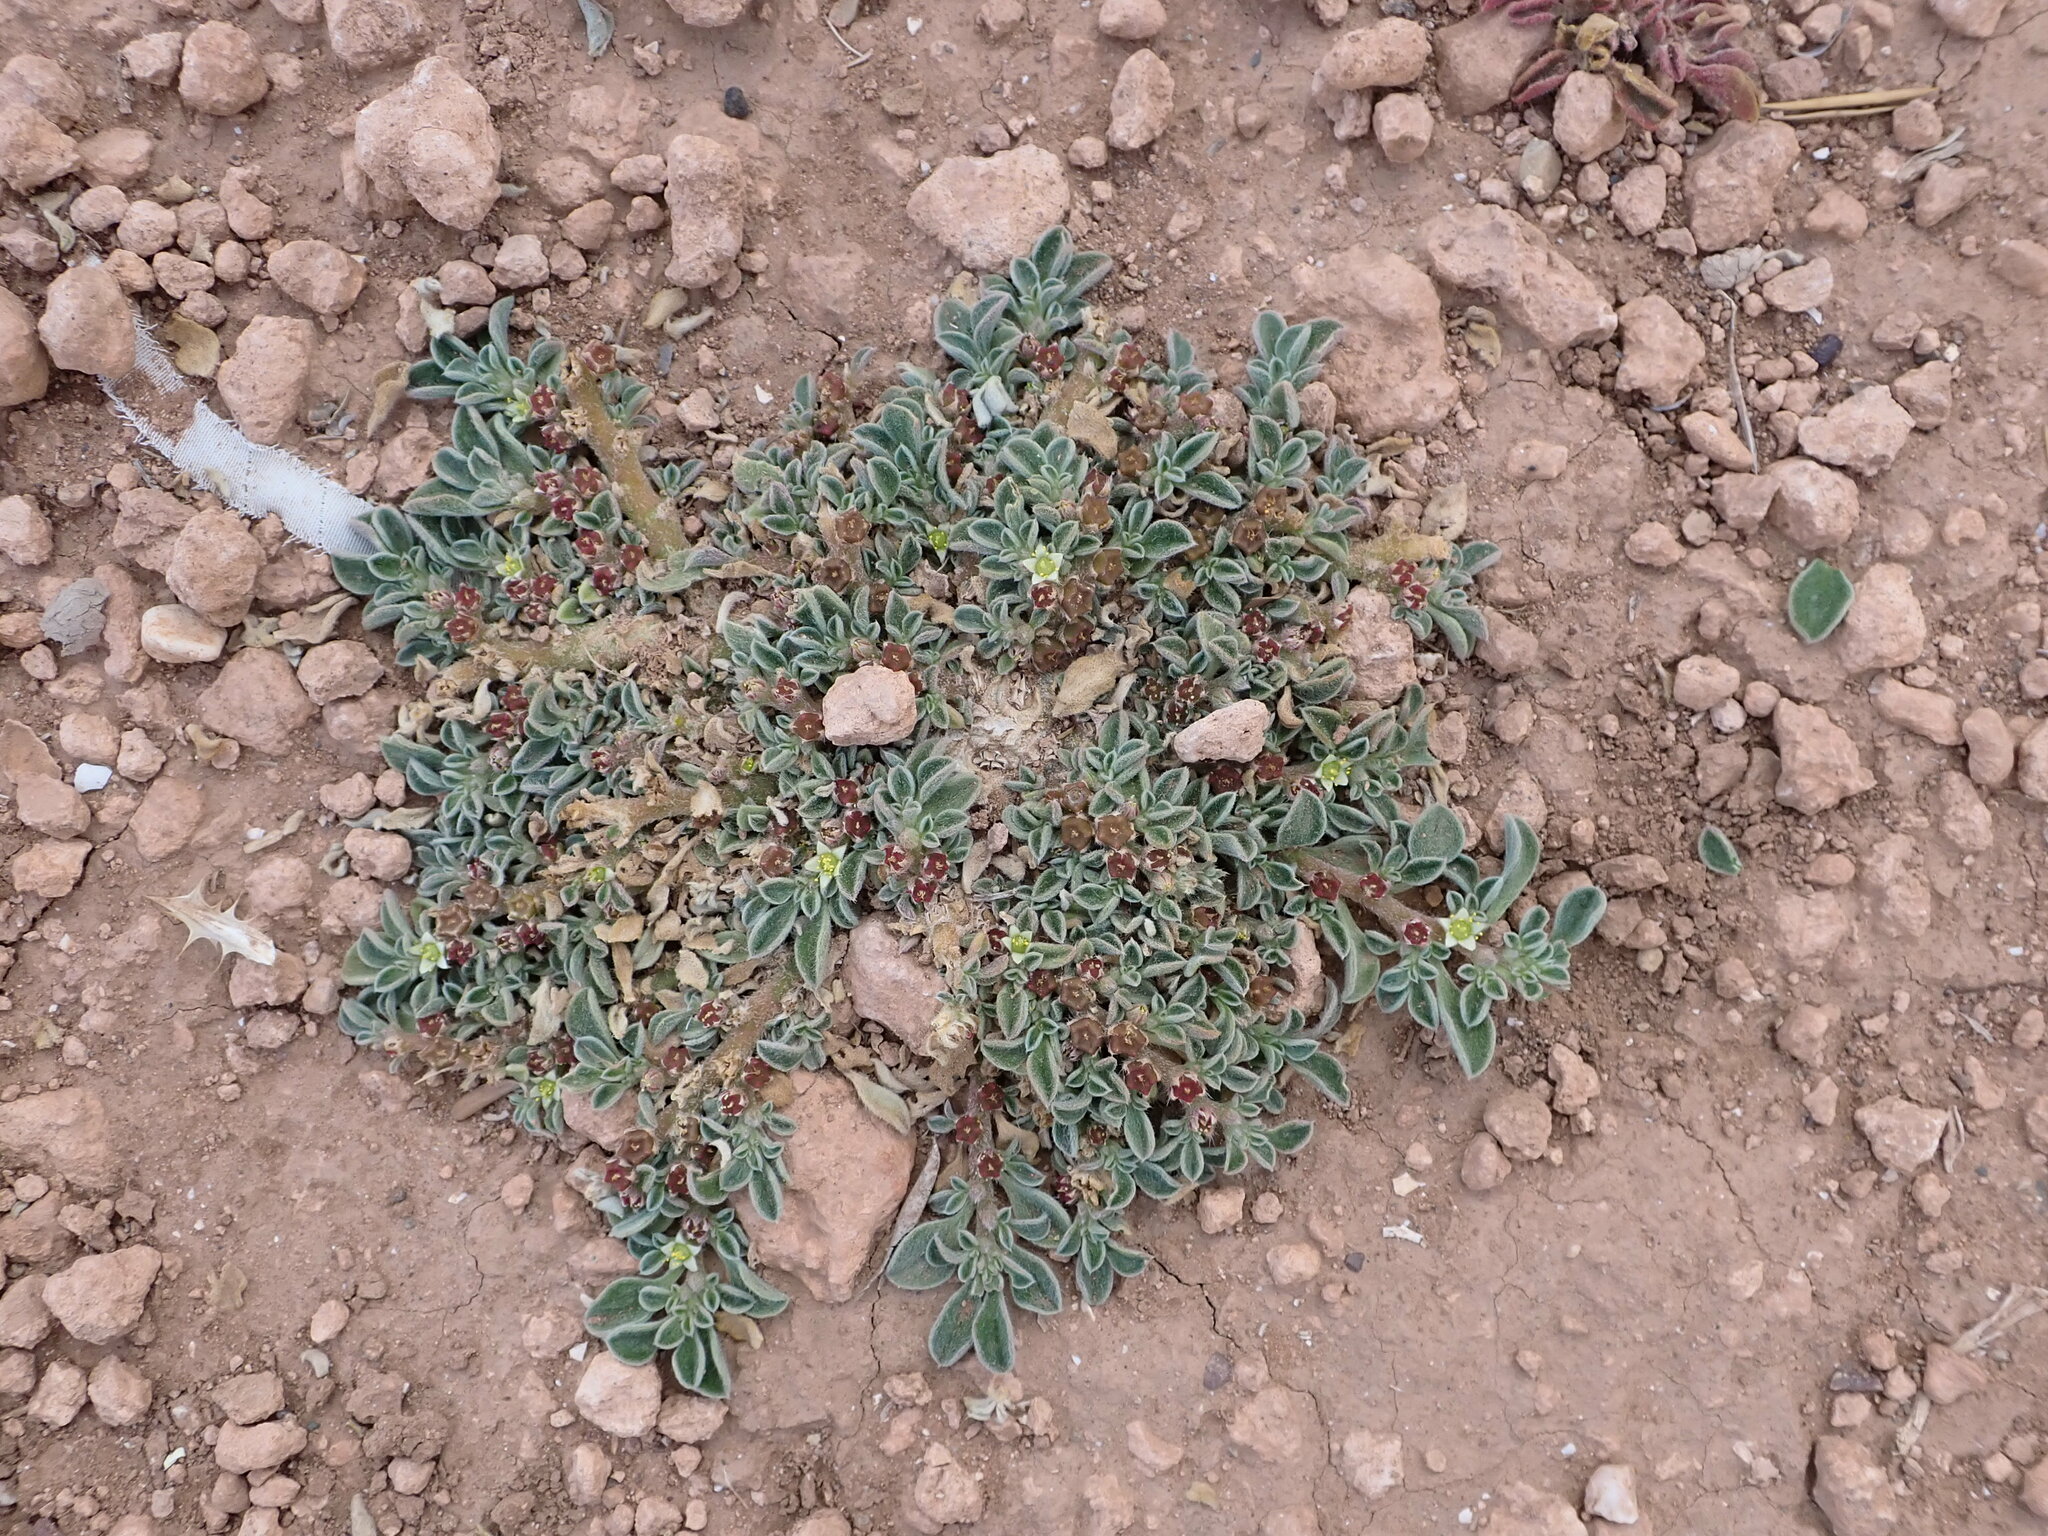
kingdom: Plantae
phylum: Tracheophyta
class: Magnoliopsida
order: Caryophyllales
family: Aizoaceae
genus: Aizoon
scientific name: Aizoon canariense
